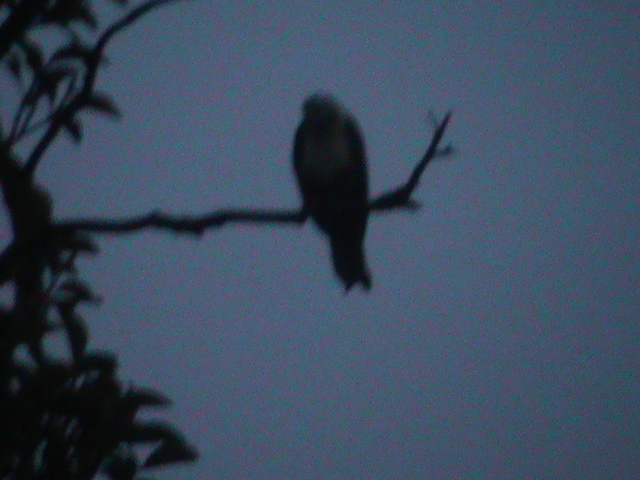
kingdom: Animalia
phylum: Chordata
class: Aves
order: Accipitriformes
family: Accipitridae
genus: Haliastur
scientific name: Haliastur indus
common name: Brahminy kite
